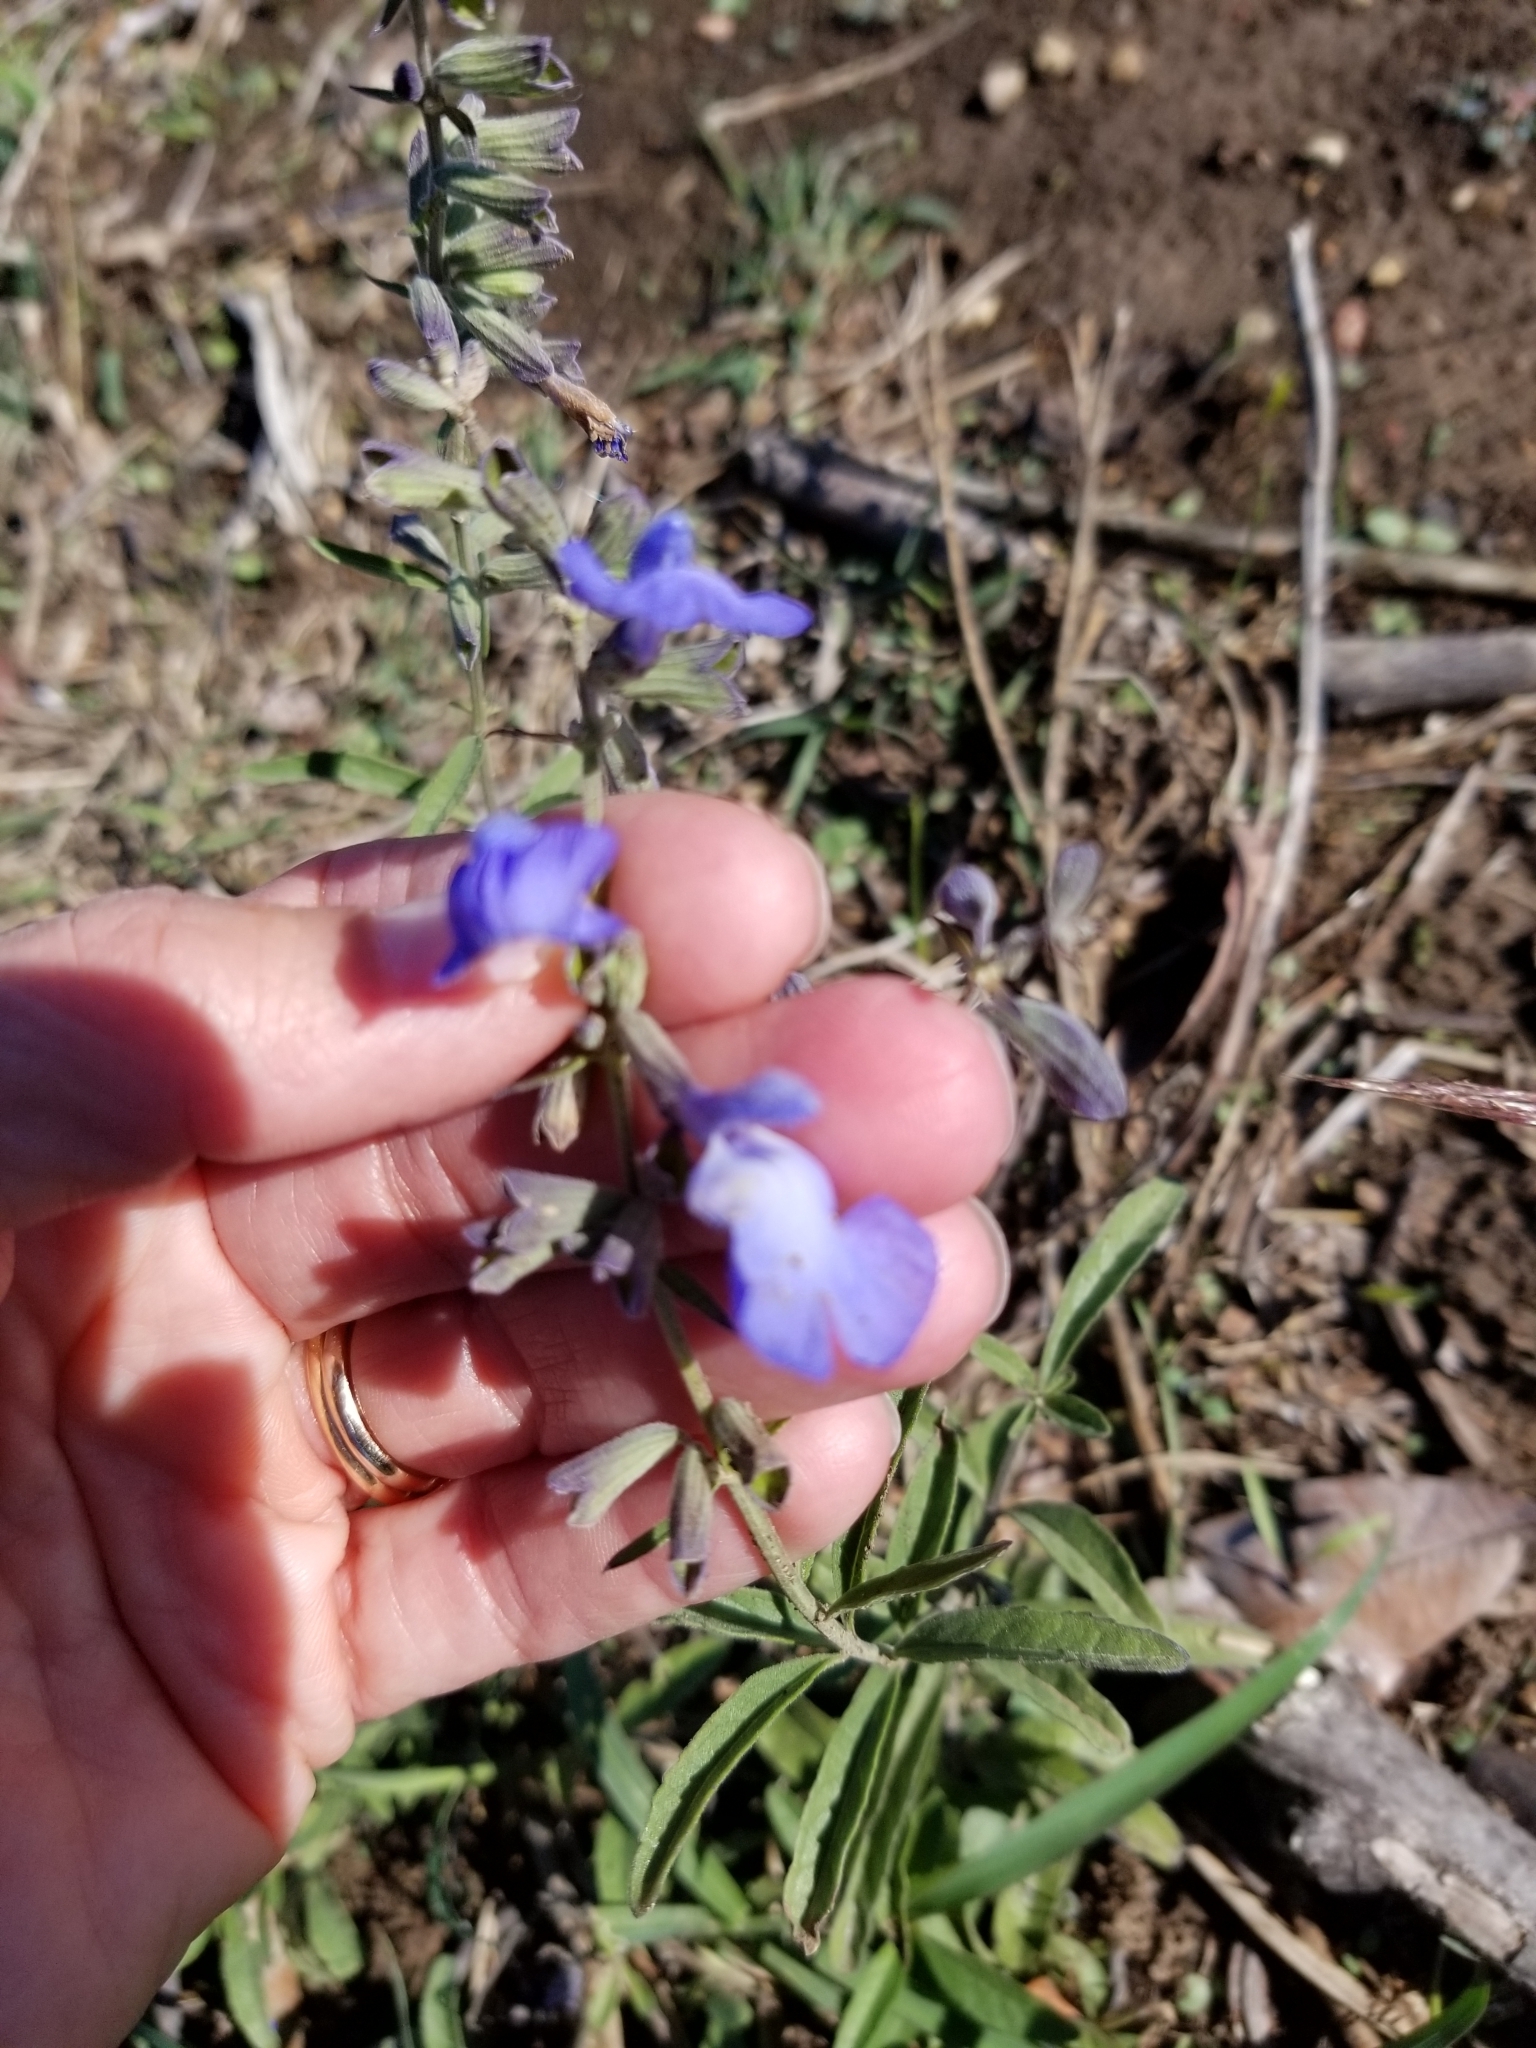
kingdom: Plantae
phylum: Tracheophyta
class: Magnoliopsida
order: Lamiales
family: Lamiaceae
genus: Salvia
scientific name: Salvia azurea
